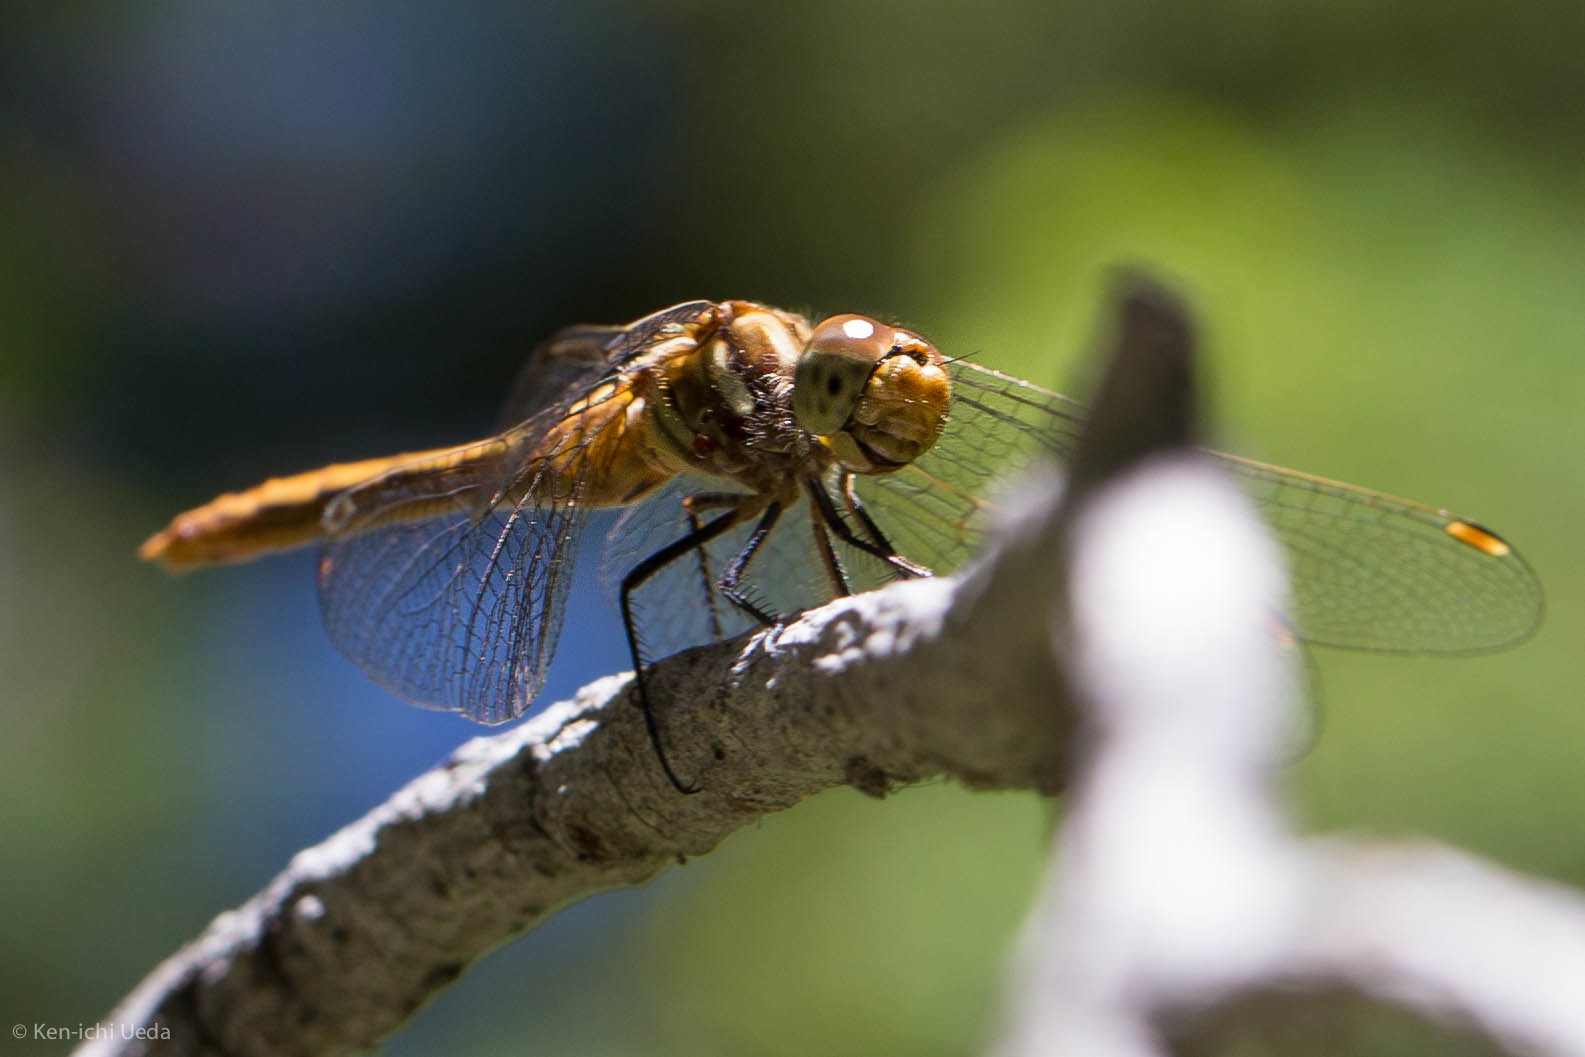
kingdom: Animalia
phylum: Arthropoda
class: Insecta
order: Odonata
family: Libellulidae
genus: Sympetrum
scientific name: Sympetrum pallipes
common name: Striped meadowhawk
